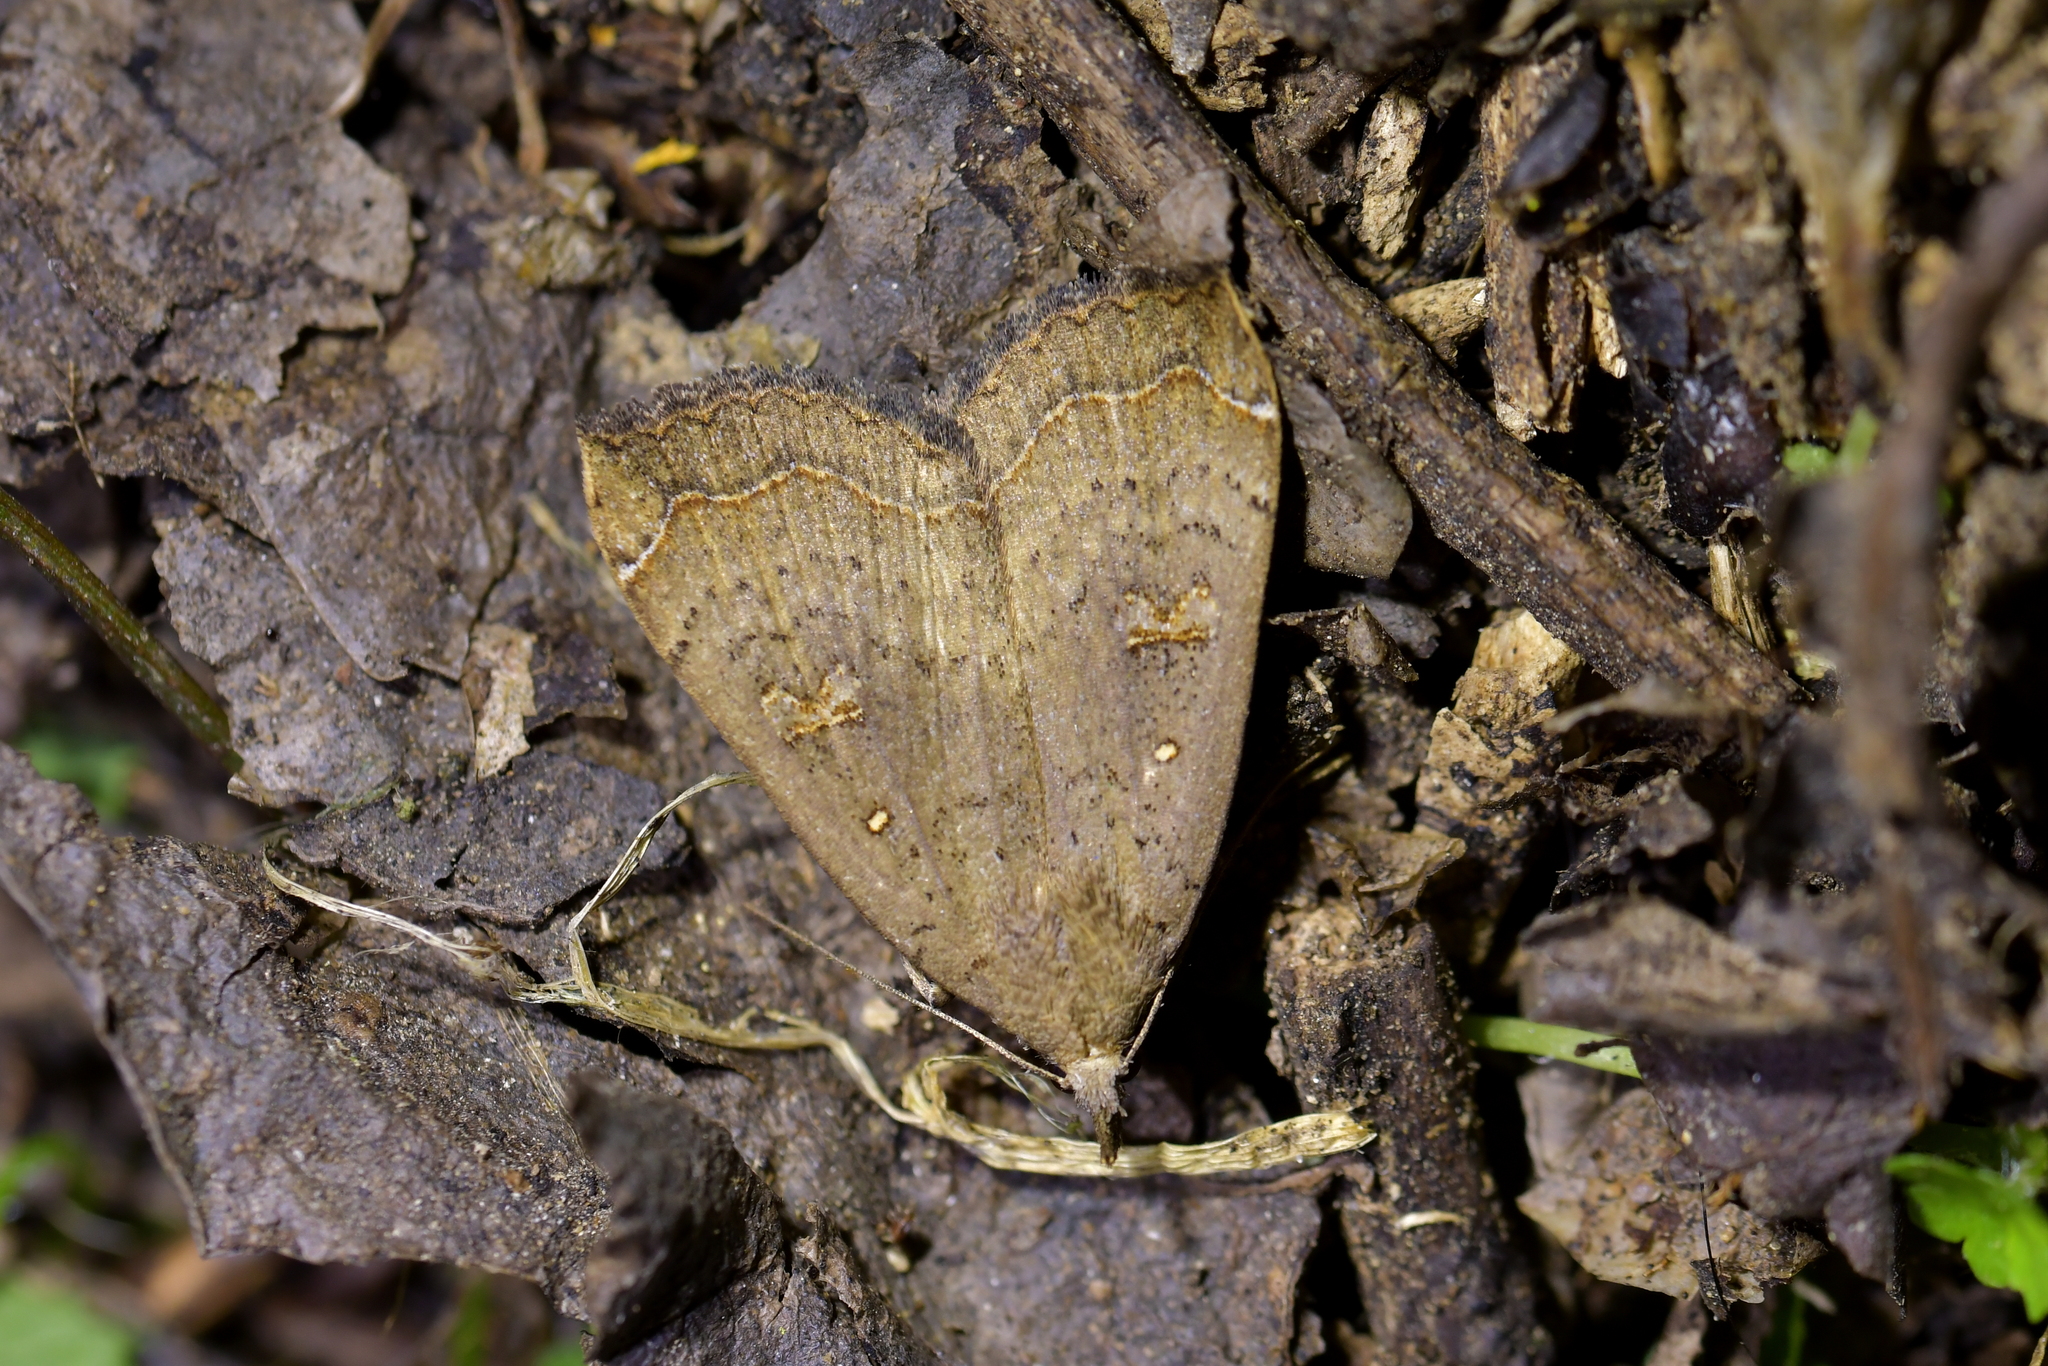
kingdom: Animalia
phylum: Arthropoda
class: Insecta
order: Lepidoptera
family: Erebidae
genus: Rhapsa
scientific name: Rhapsa scotosialis
